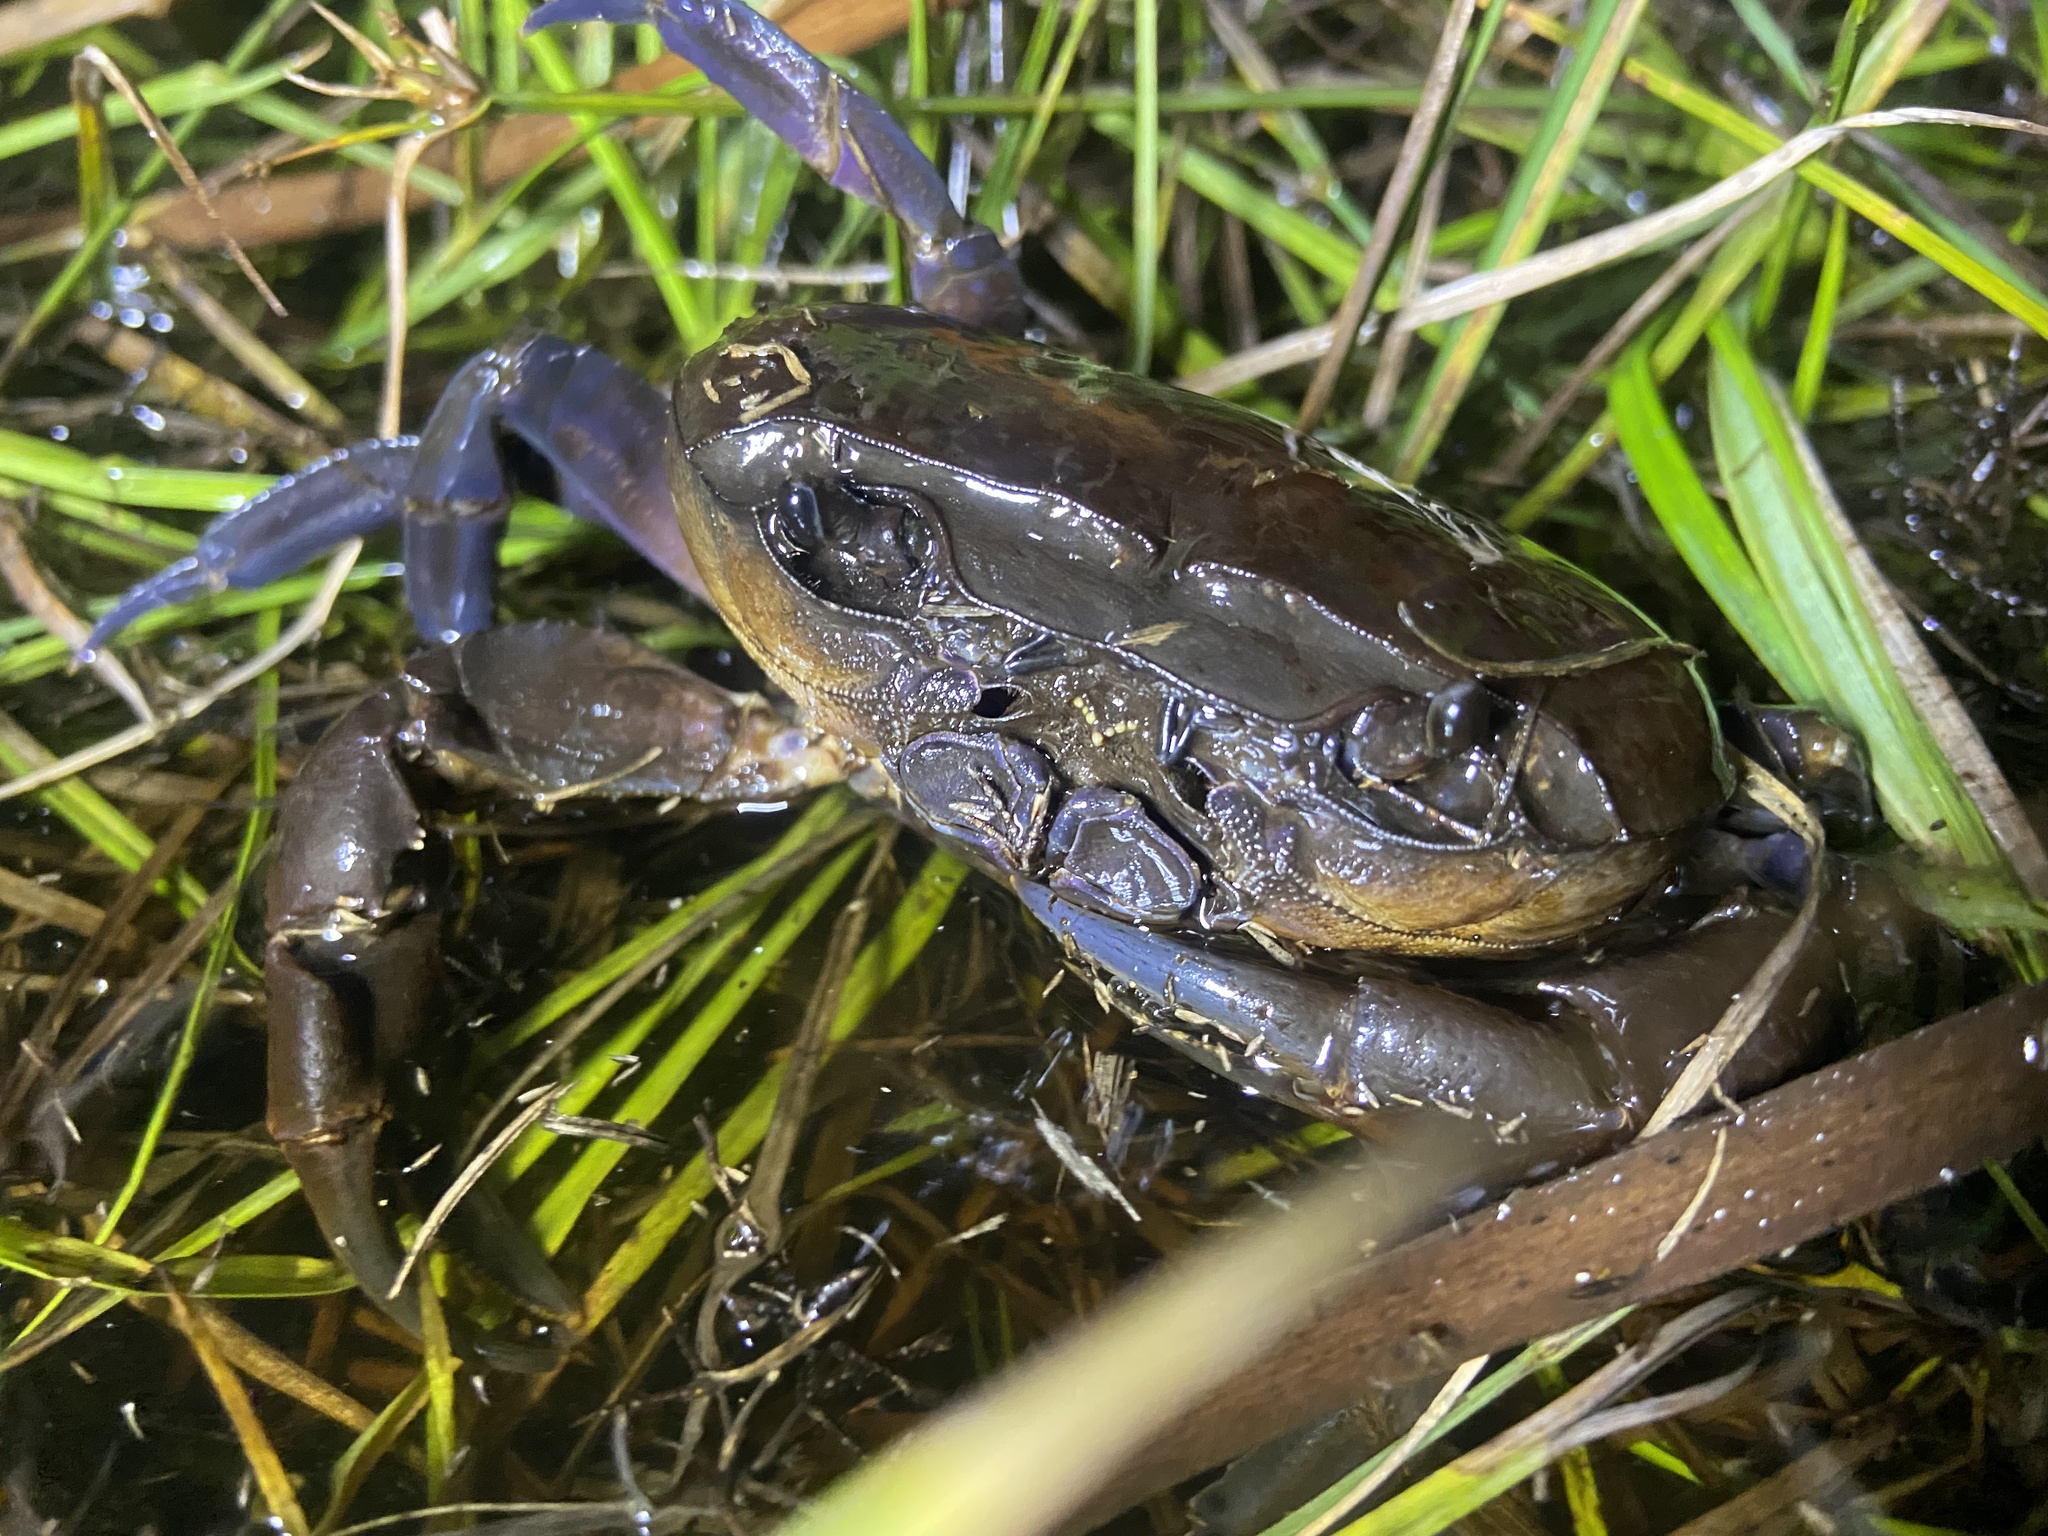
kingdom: Animalia
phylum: Arthropoda
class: Malacostraca
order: Decapoda
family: Potamonautidae
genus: Potamonautes
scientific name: Potamonautes perlatus
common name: Cape river crab
